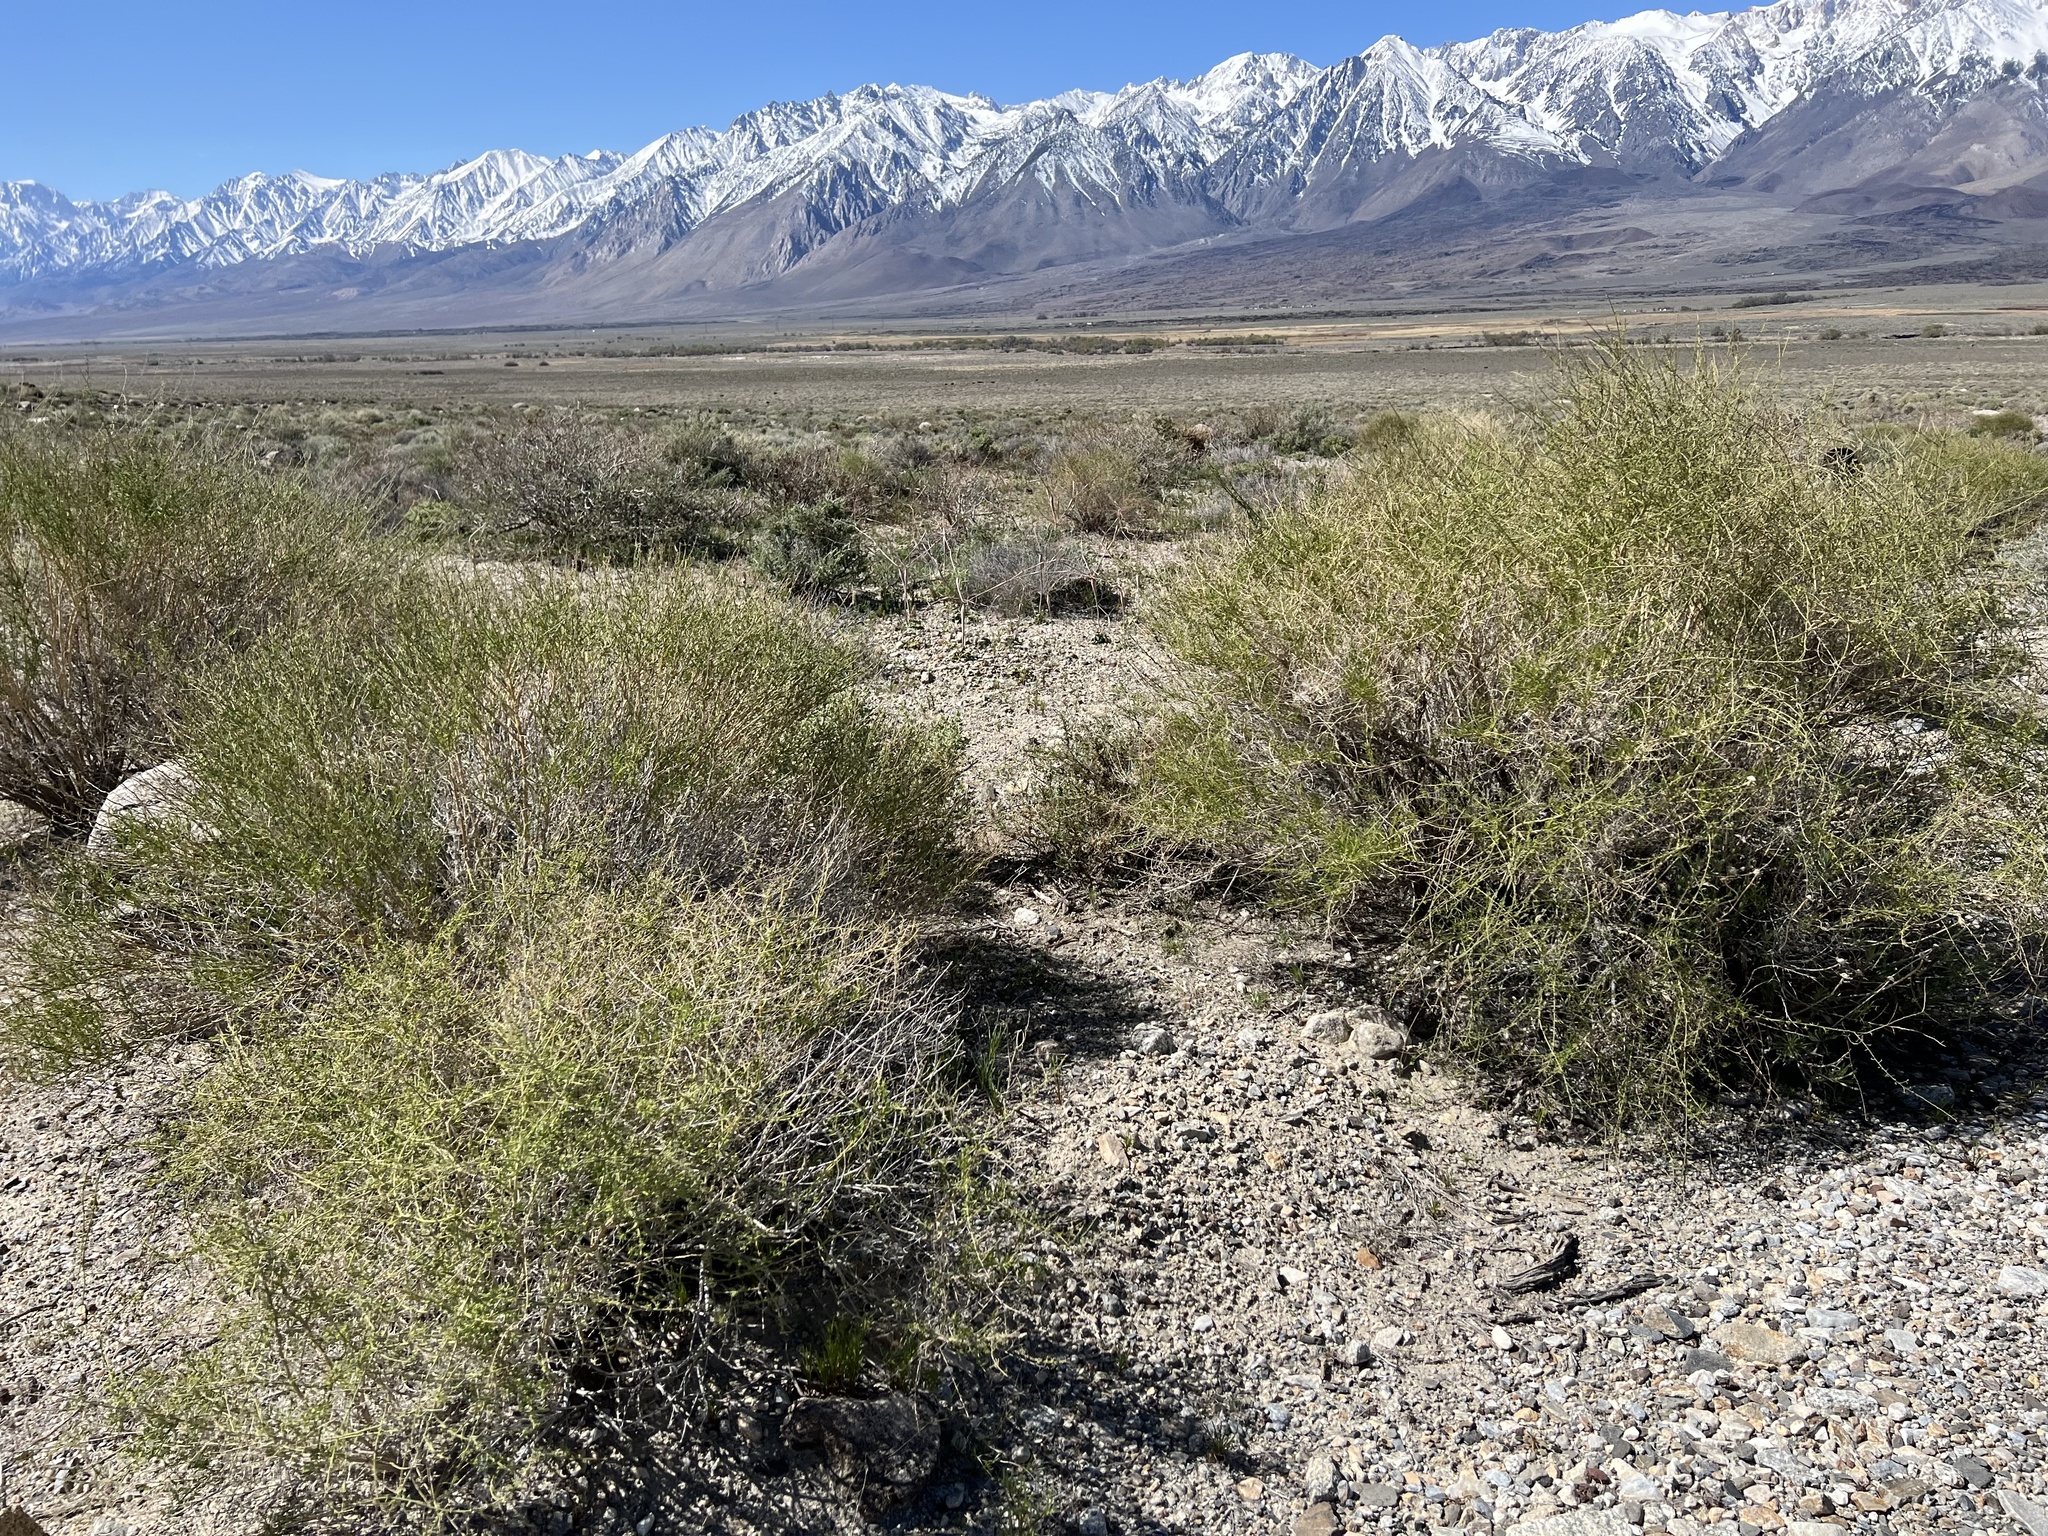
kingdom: Plantae
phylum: Tracheophyta
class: Magnoliopsida
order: Asterales
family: Asteraceae
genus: Ambrosia
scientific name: Ambrosia salsola
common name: Burrobrush
